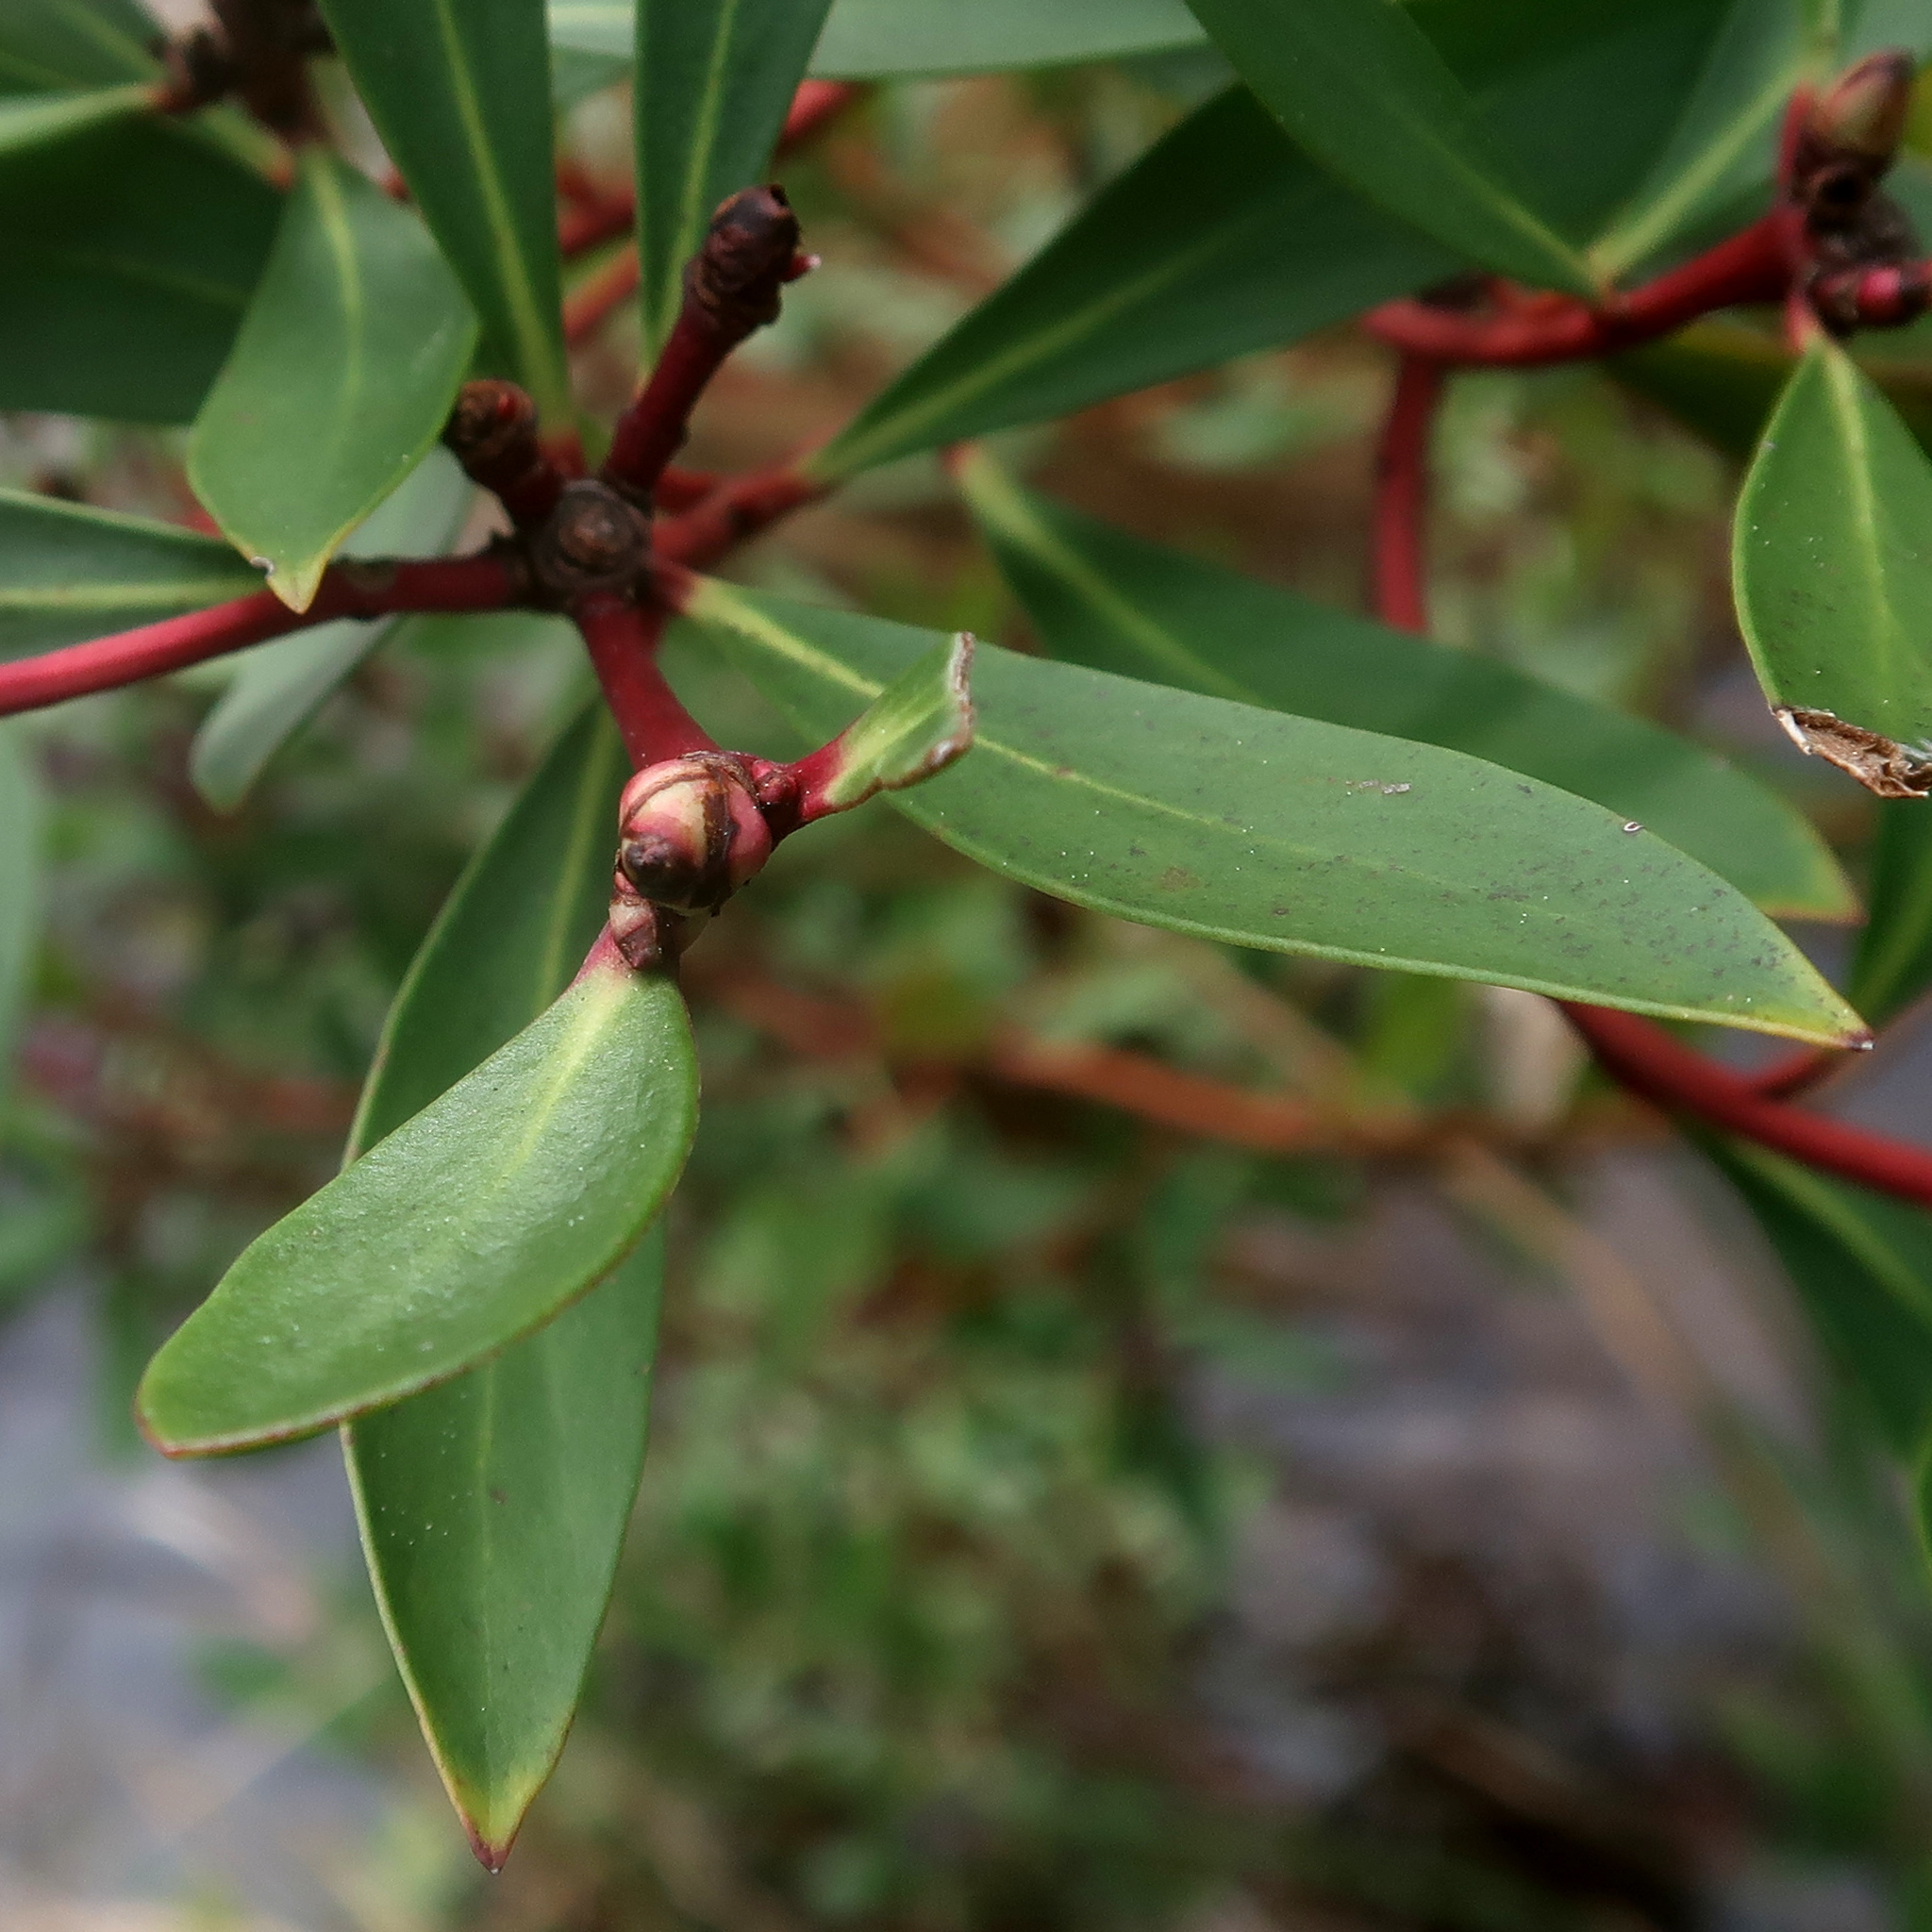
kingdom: Plantae
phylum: Tracheophyta
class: Magnoliopsida
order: Canellales
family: Winteraceae
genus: Drimys
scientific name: Drimys aromatica
